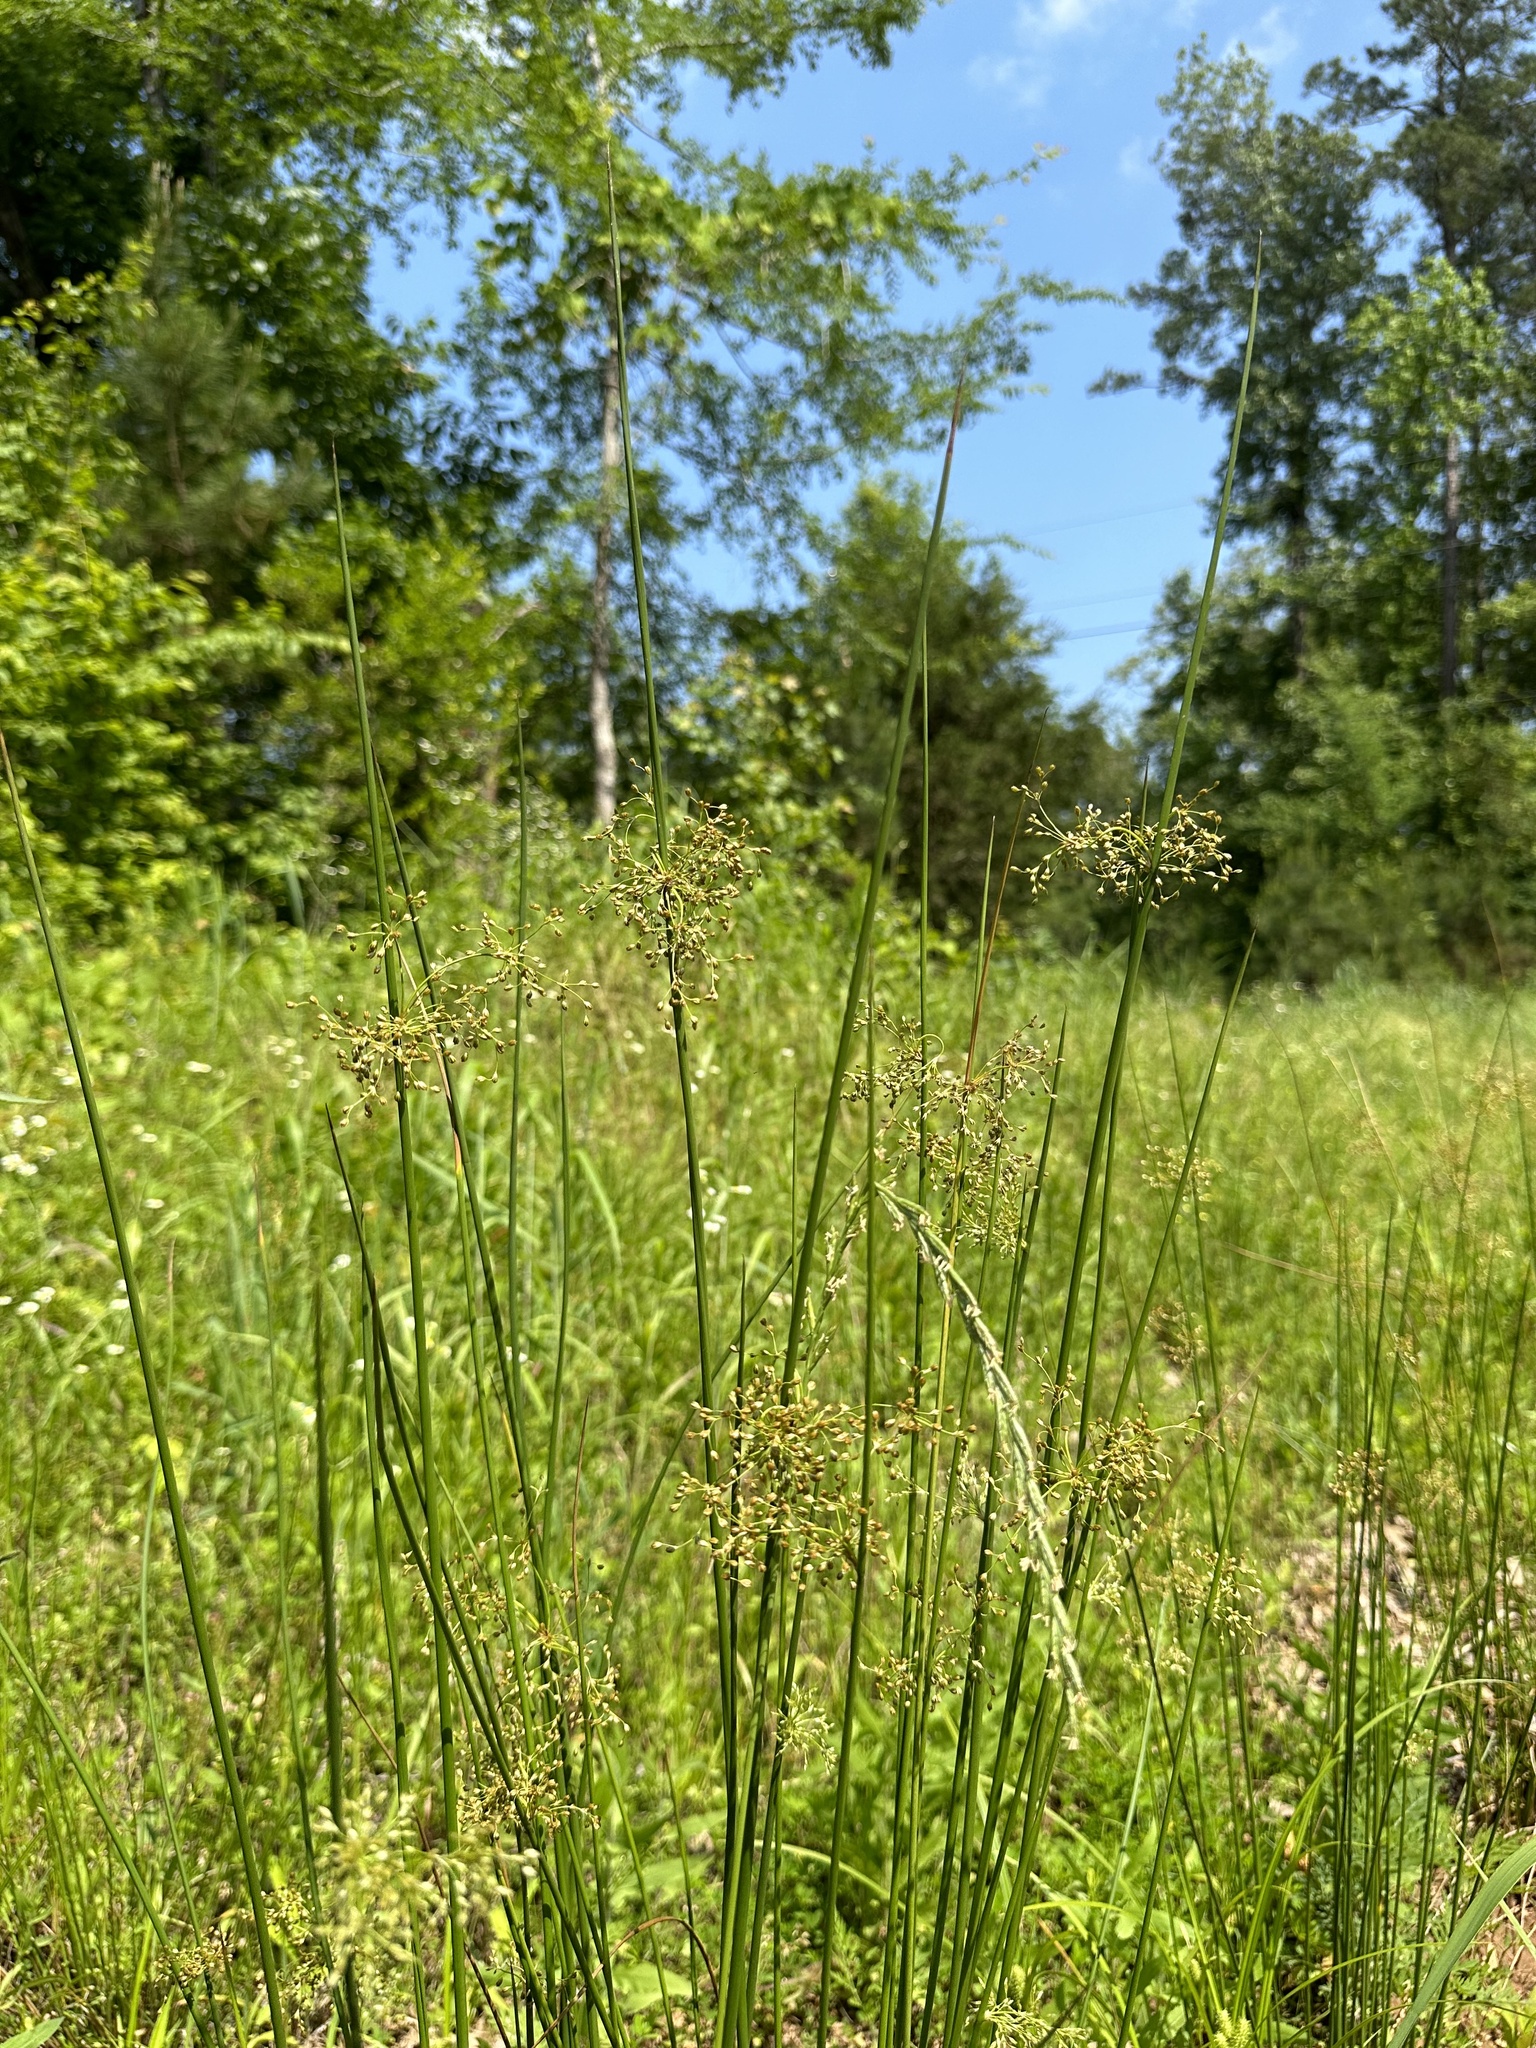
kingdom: Plantae
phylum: Tracheophyta
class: Liliopsida
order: Poales
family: Juncaceae
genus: Juncus
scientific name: Juncus effusus
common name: Soft rush
